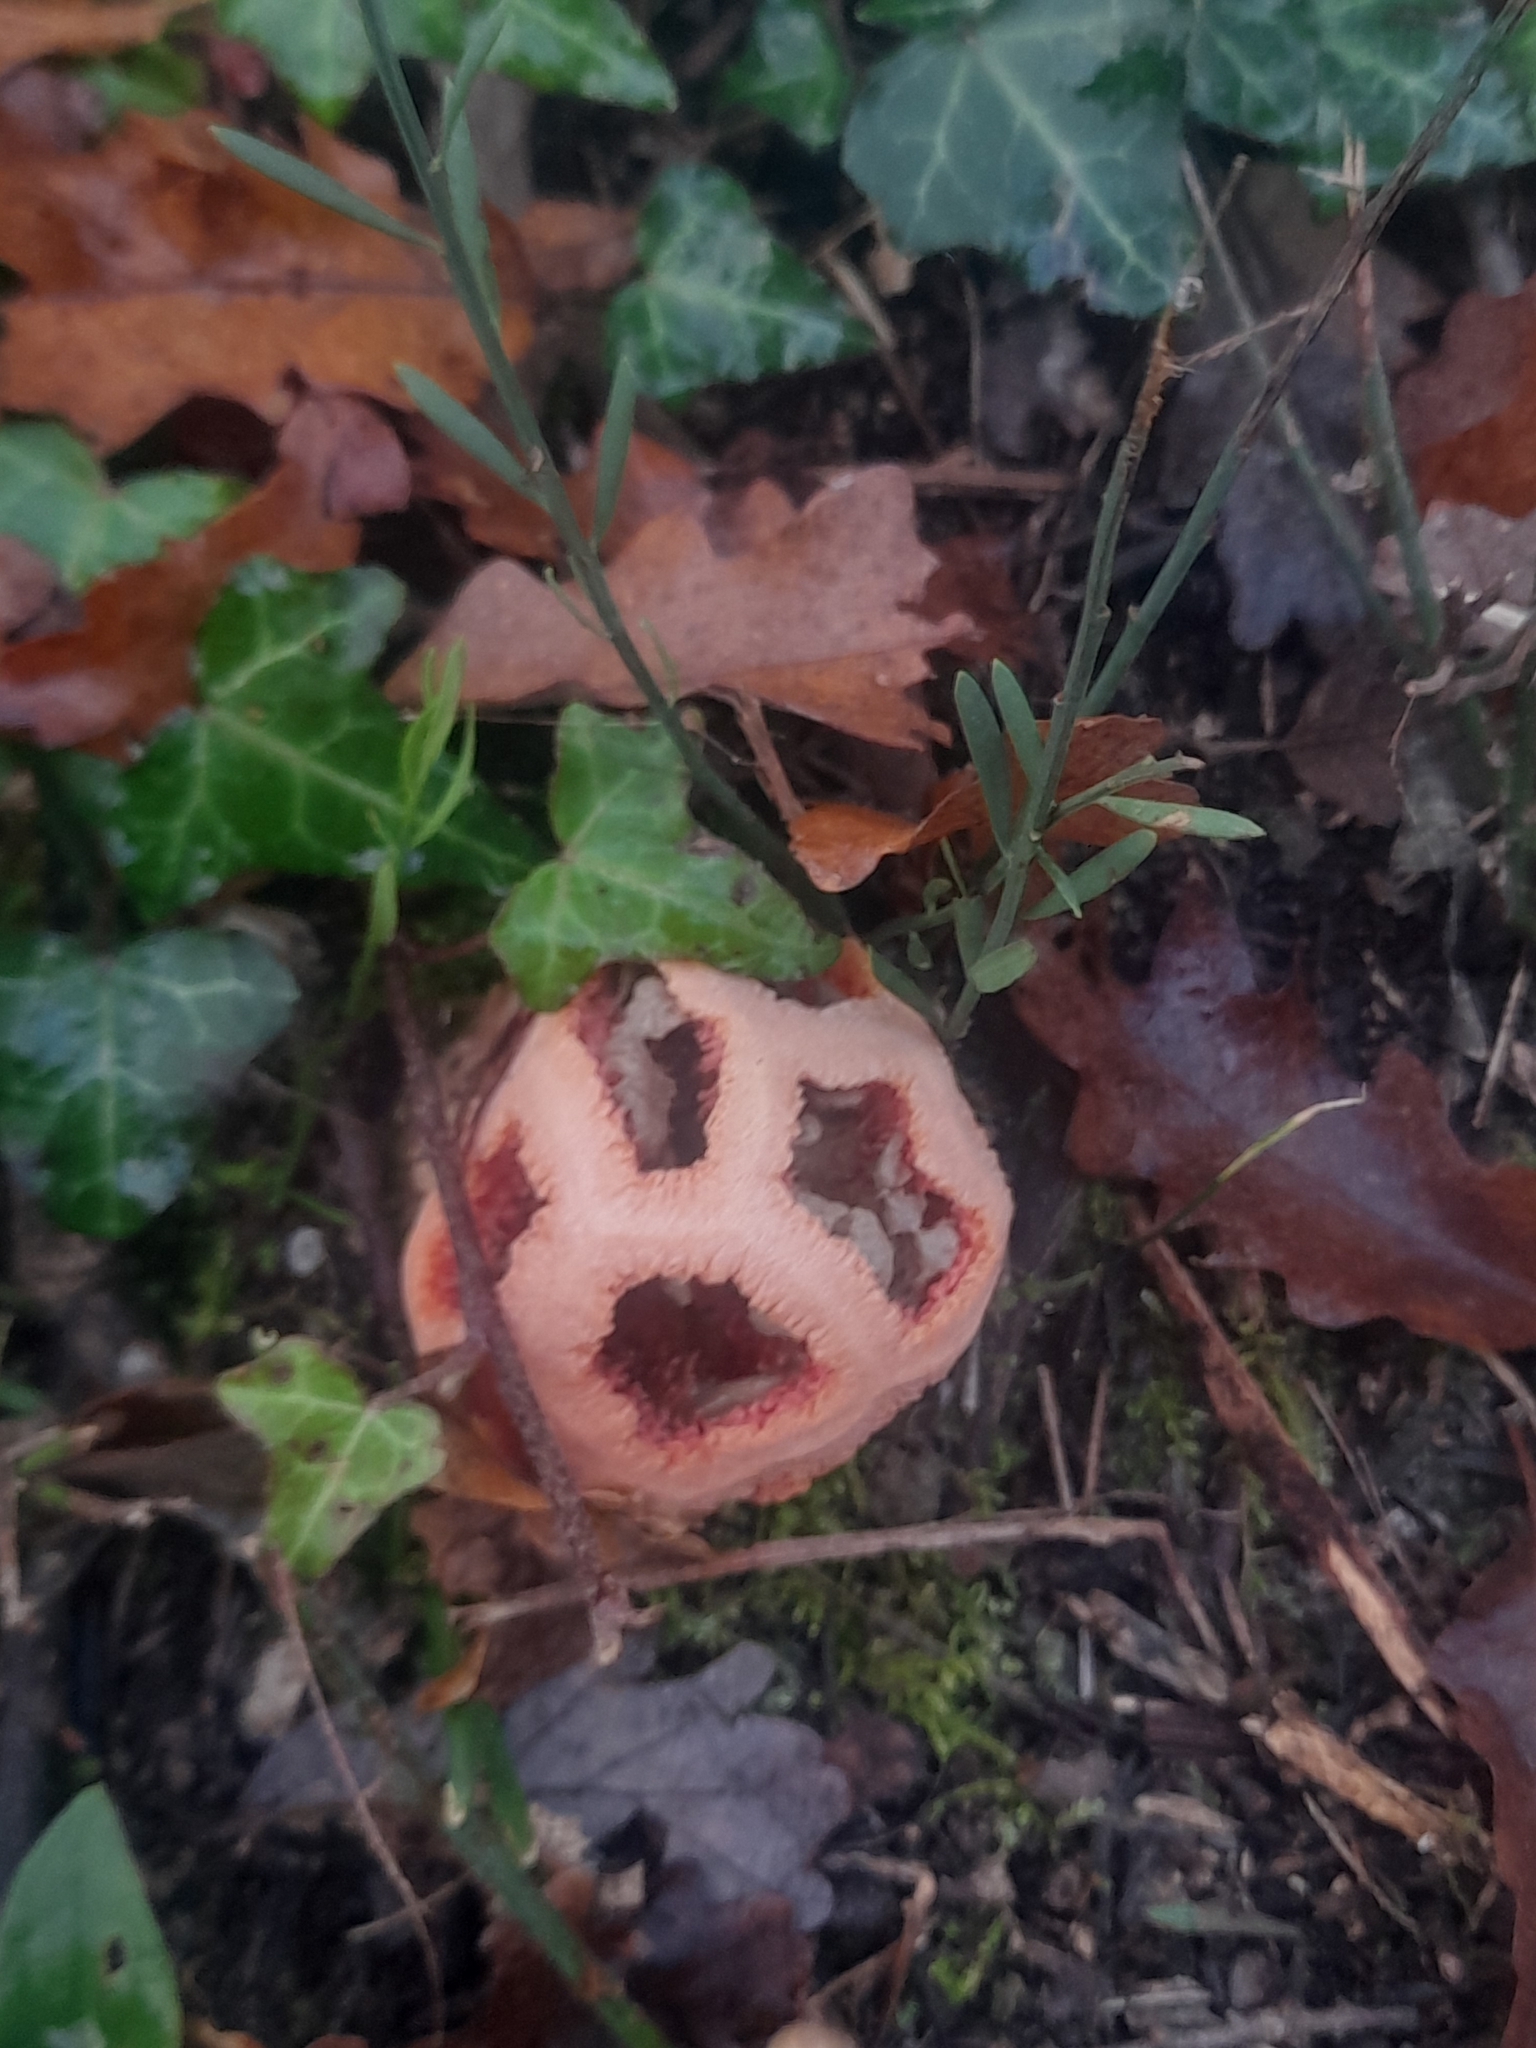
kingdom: Fungi
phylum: Basidiomycota
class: Agaricomycetes
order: Phallales
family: Phallaceae
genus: Clathrus
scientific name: Clathrus ruber
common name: Red cage
